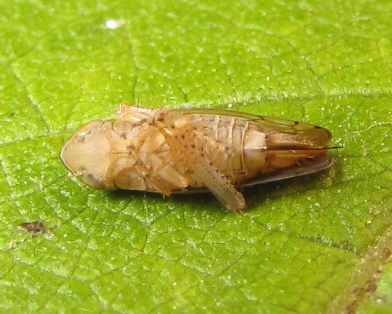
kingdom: Animalia
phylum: Arthropoda
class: Insecta
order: Hemiptera
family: Cicadellidae
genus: Cantura
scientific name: Cantura jucunda
